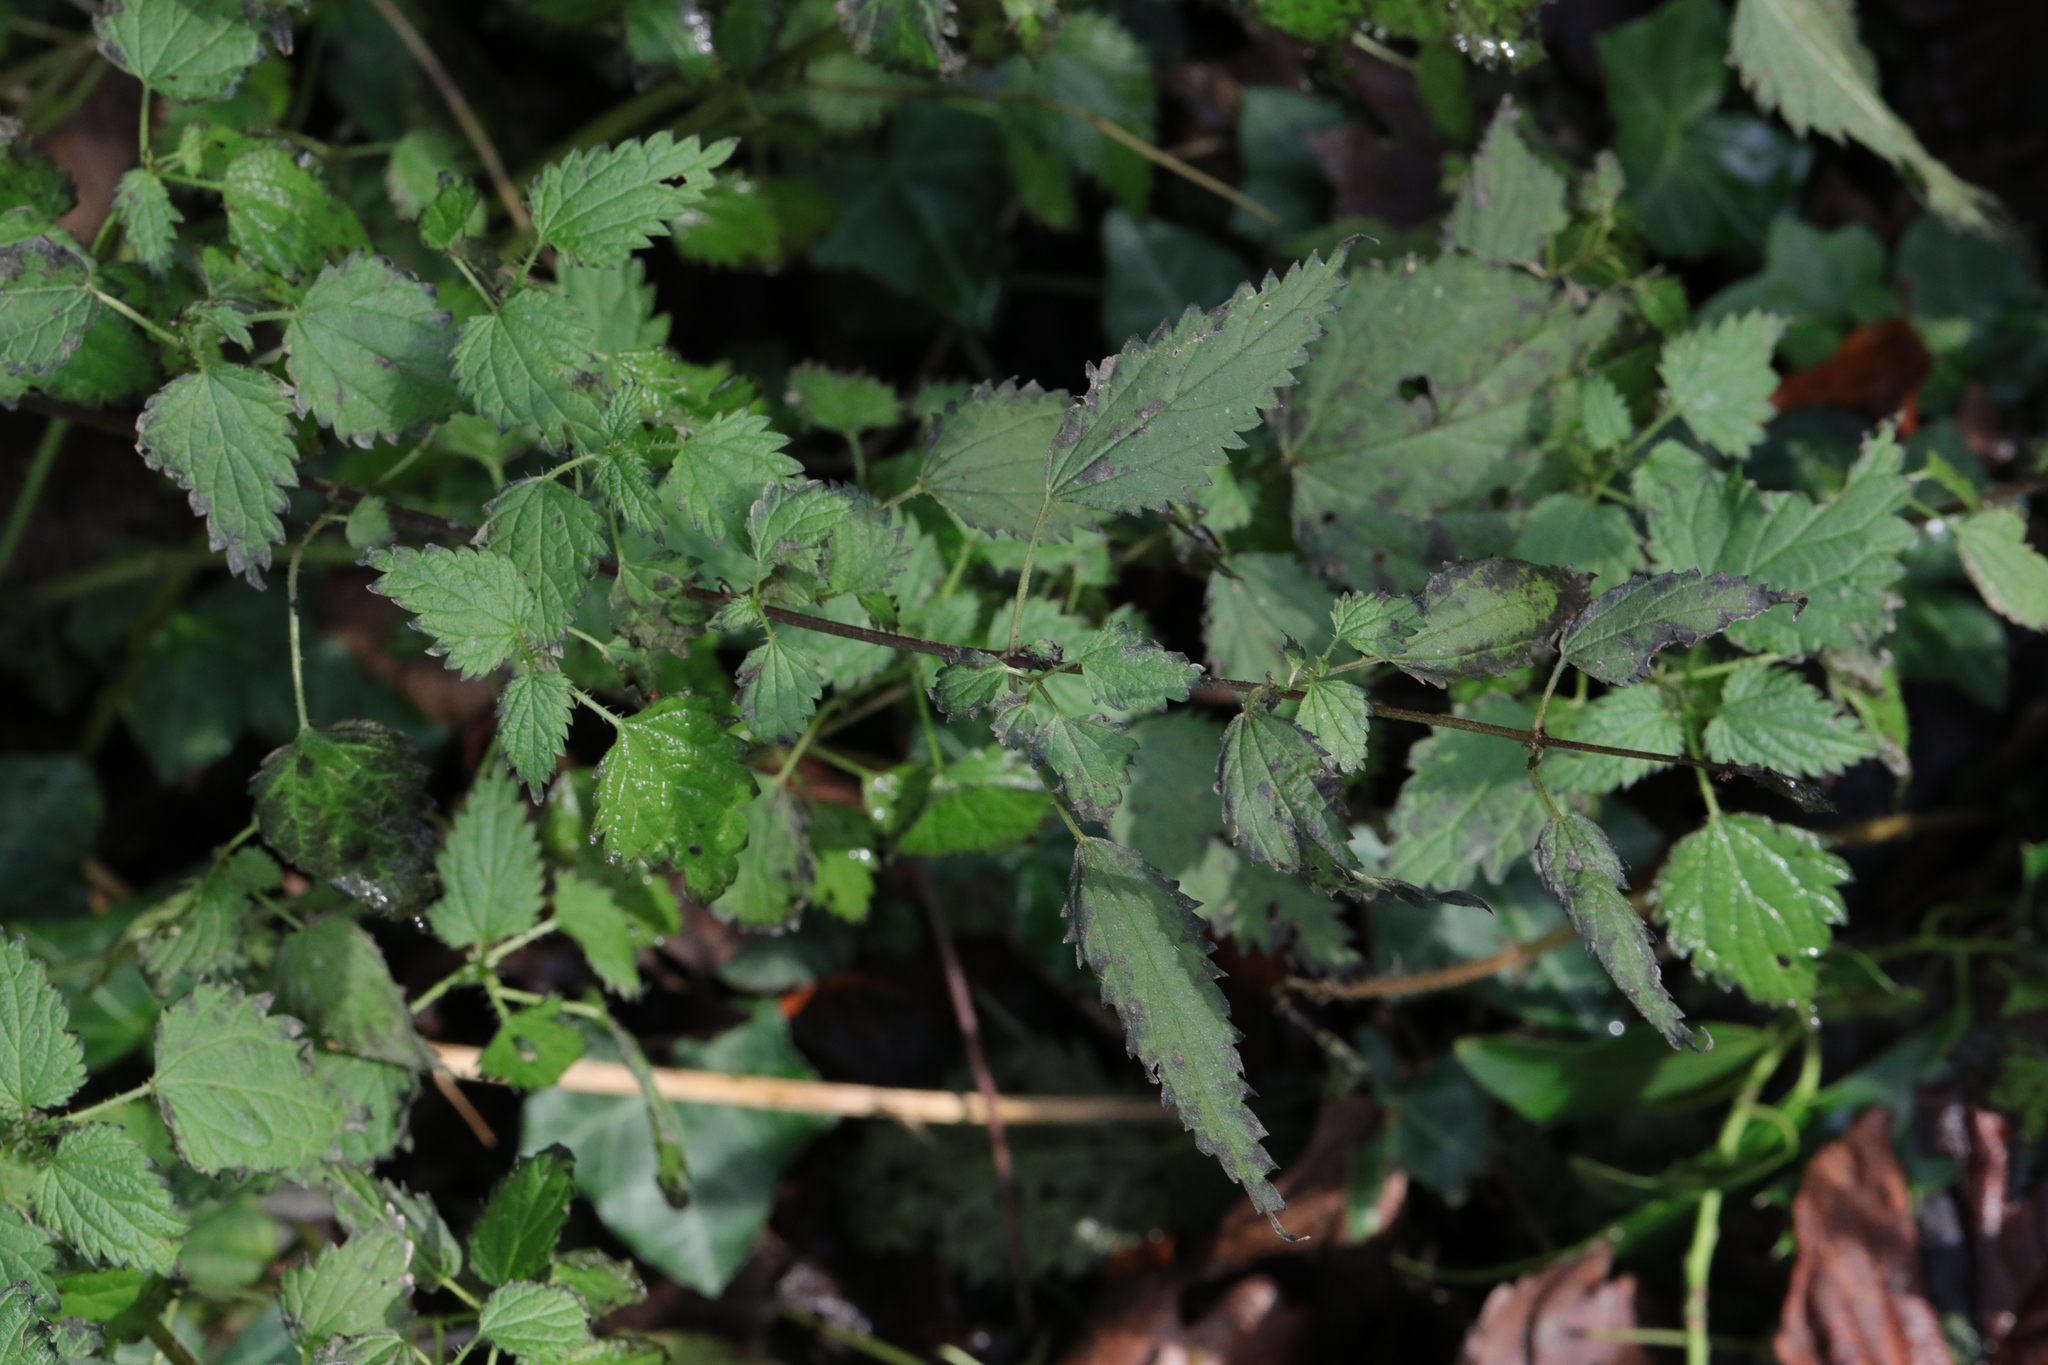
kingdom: Plantae
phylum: Tracheophyta
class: Magnoliopsida
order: Rosales
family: Urticaceae
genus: Urtica
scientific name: Urtica dioica
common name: Common nettle
